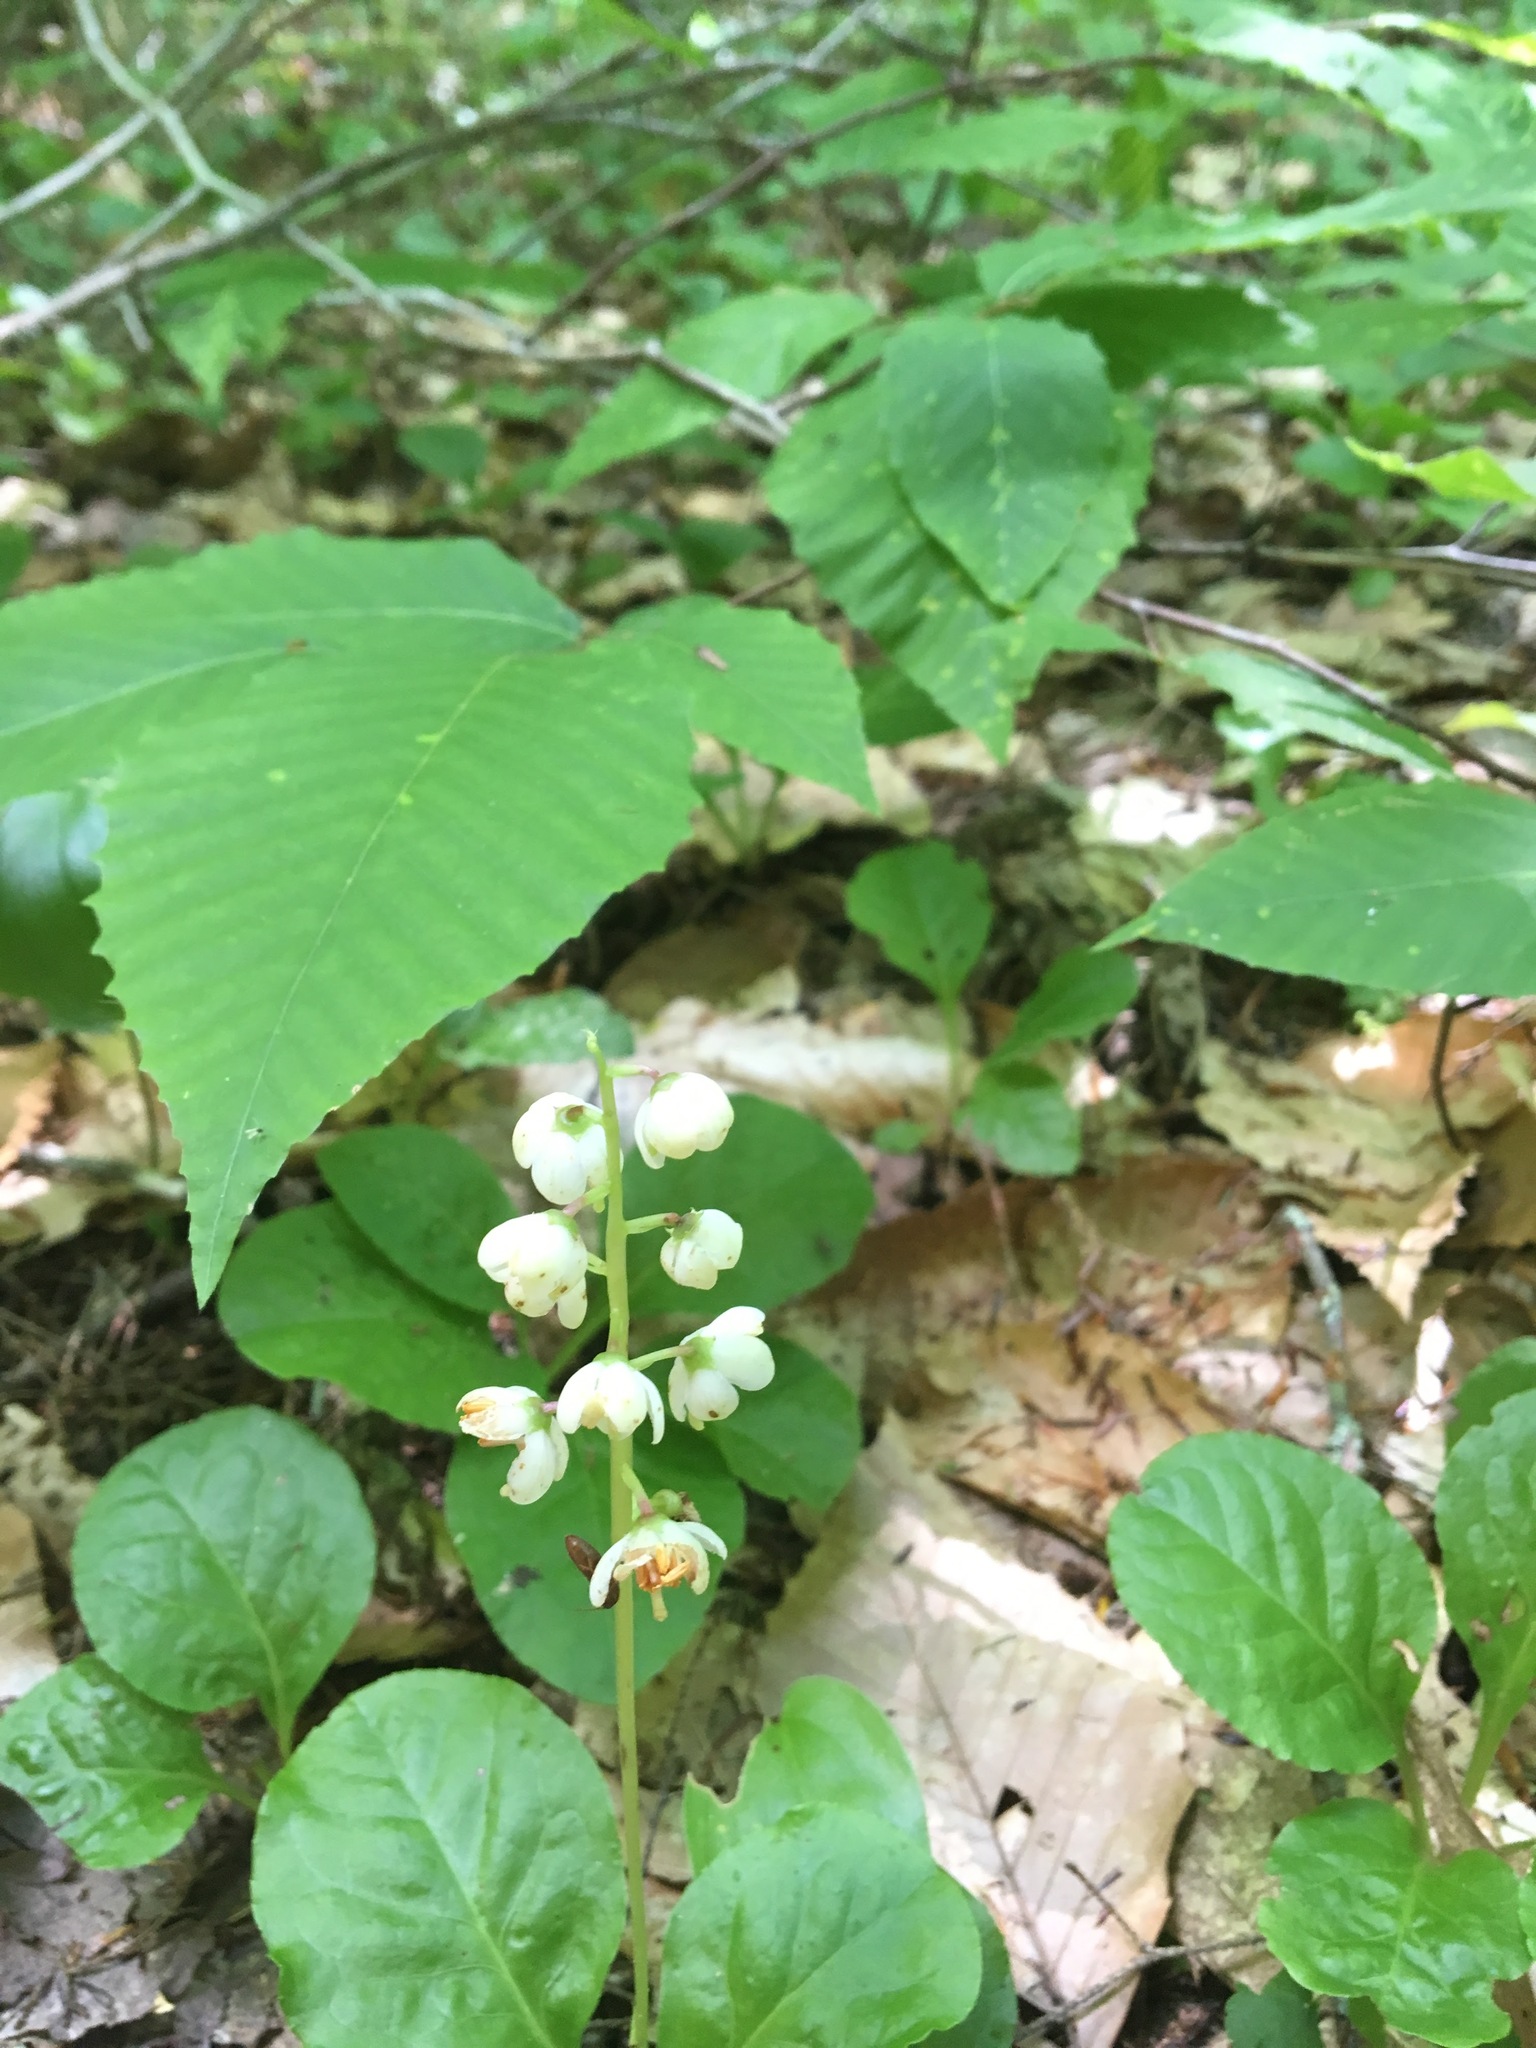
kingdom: Plantae
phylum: Tracheophyta
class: Magnoliopsida
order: Ericales
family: Ericaceae
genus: Pyrola
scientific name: Pyrola elliptica
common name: Shinleaf
